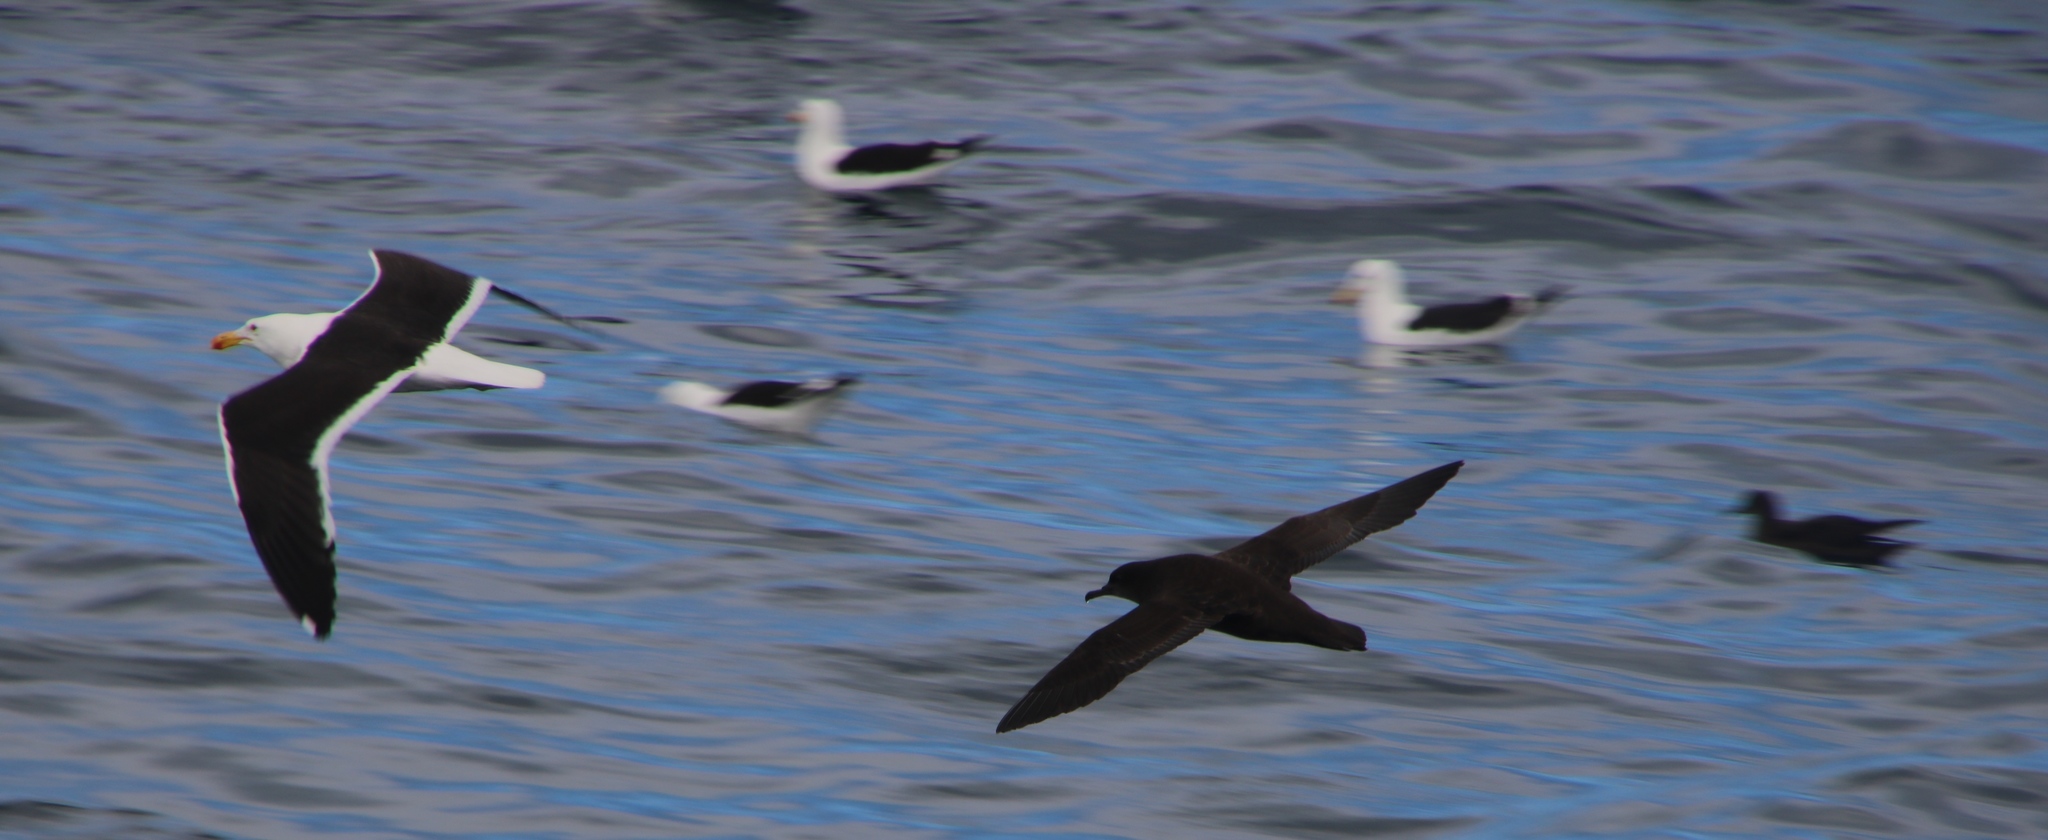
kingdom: Animalia
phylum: Chordata
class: Aves
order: Charadriiformes
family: Laridae
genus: Larus
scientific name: Larus dominicanus
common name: Kelp gull
